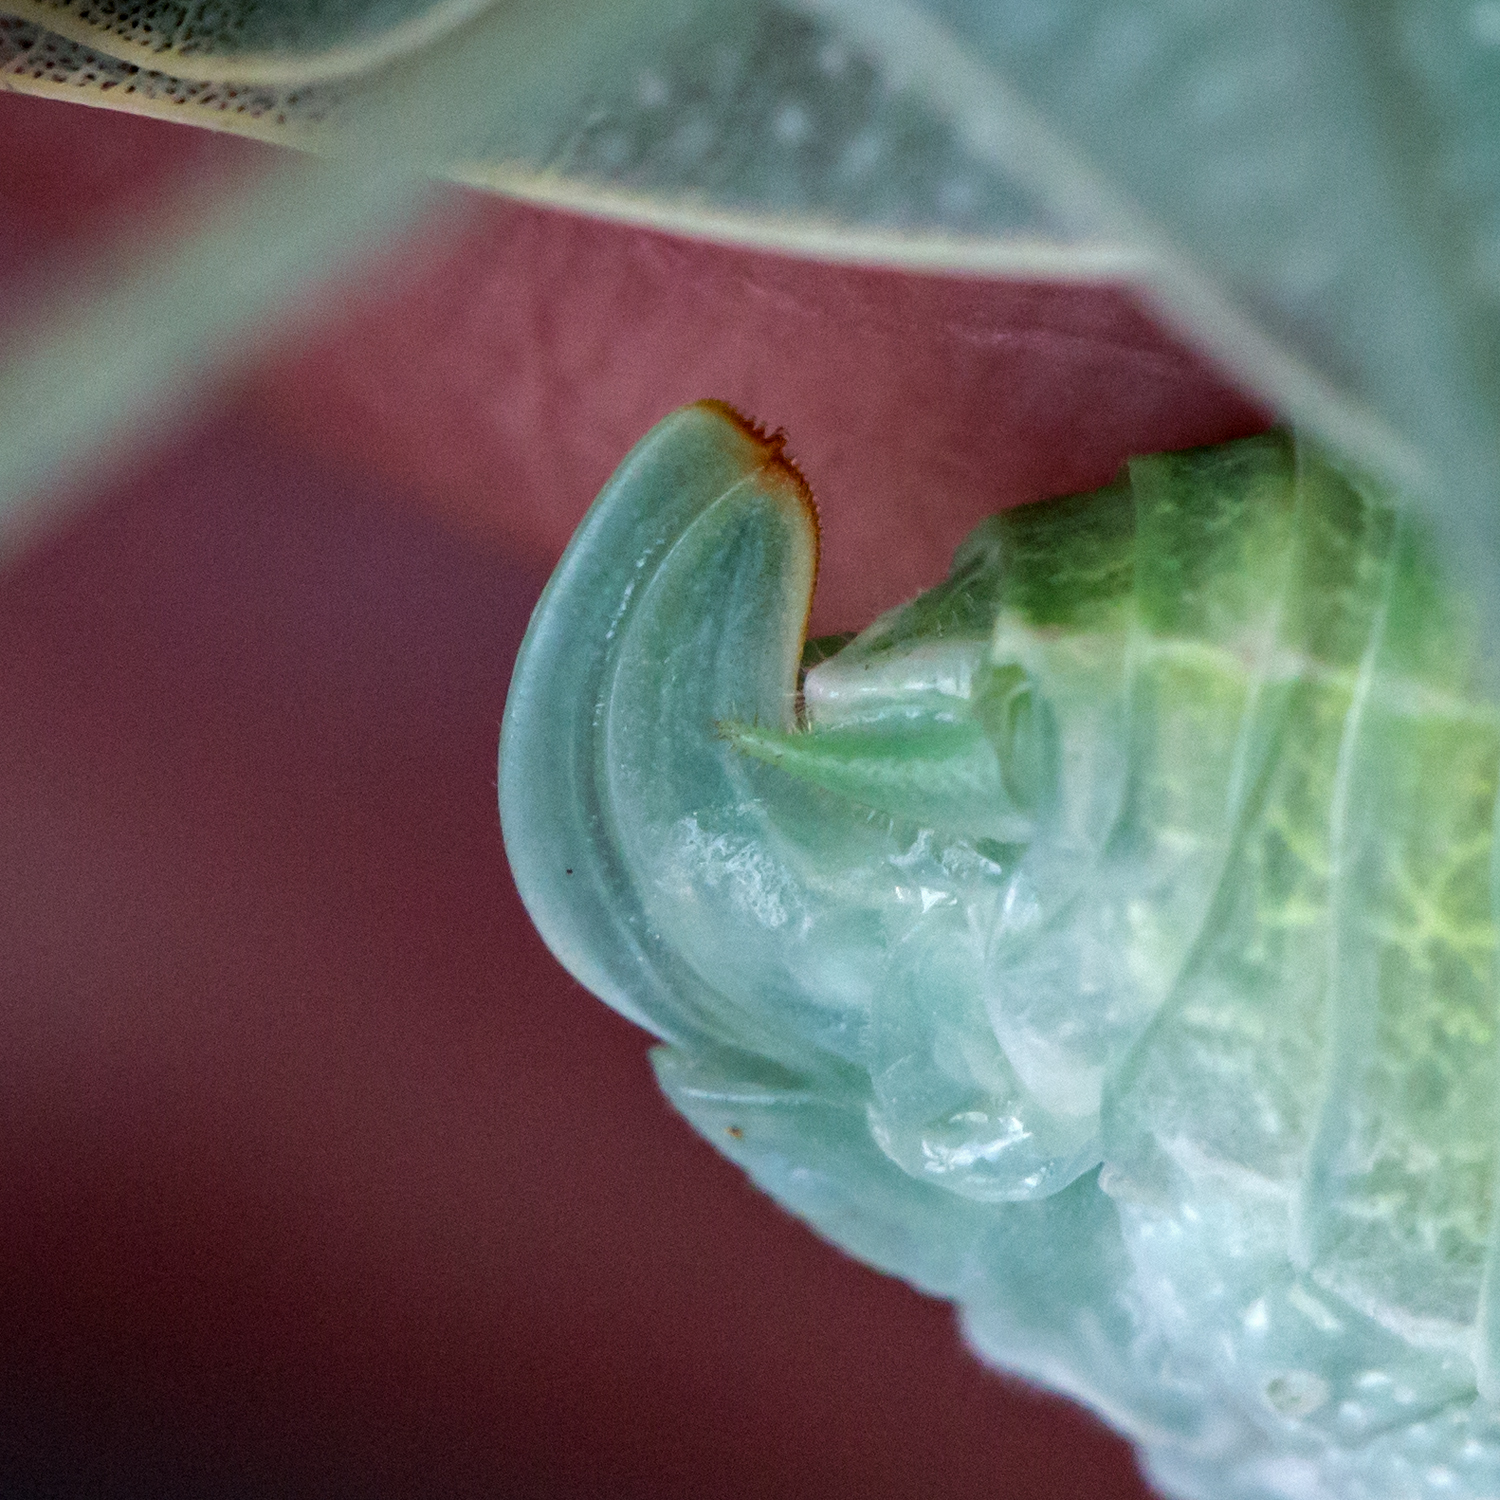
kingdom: Animalia
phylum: Arthropoda
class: Insecta
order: Orthoptera
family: Tettigoniidae
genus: Microcentrum
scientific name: Microcentrum rhombifolium
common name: Broad-winged katydid
